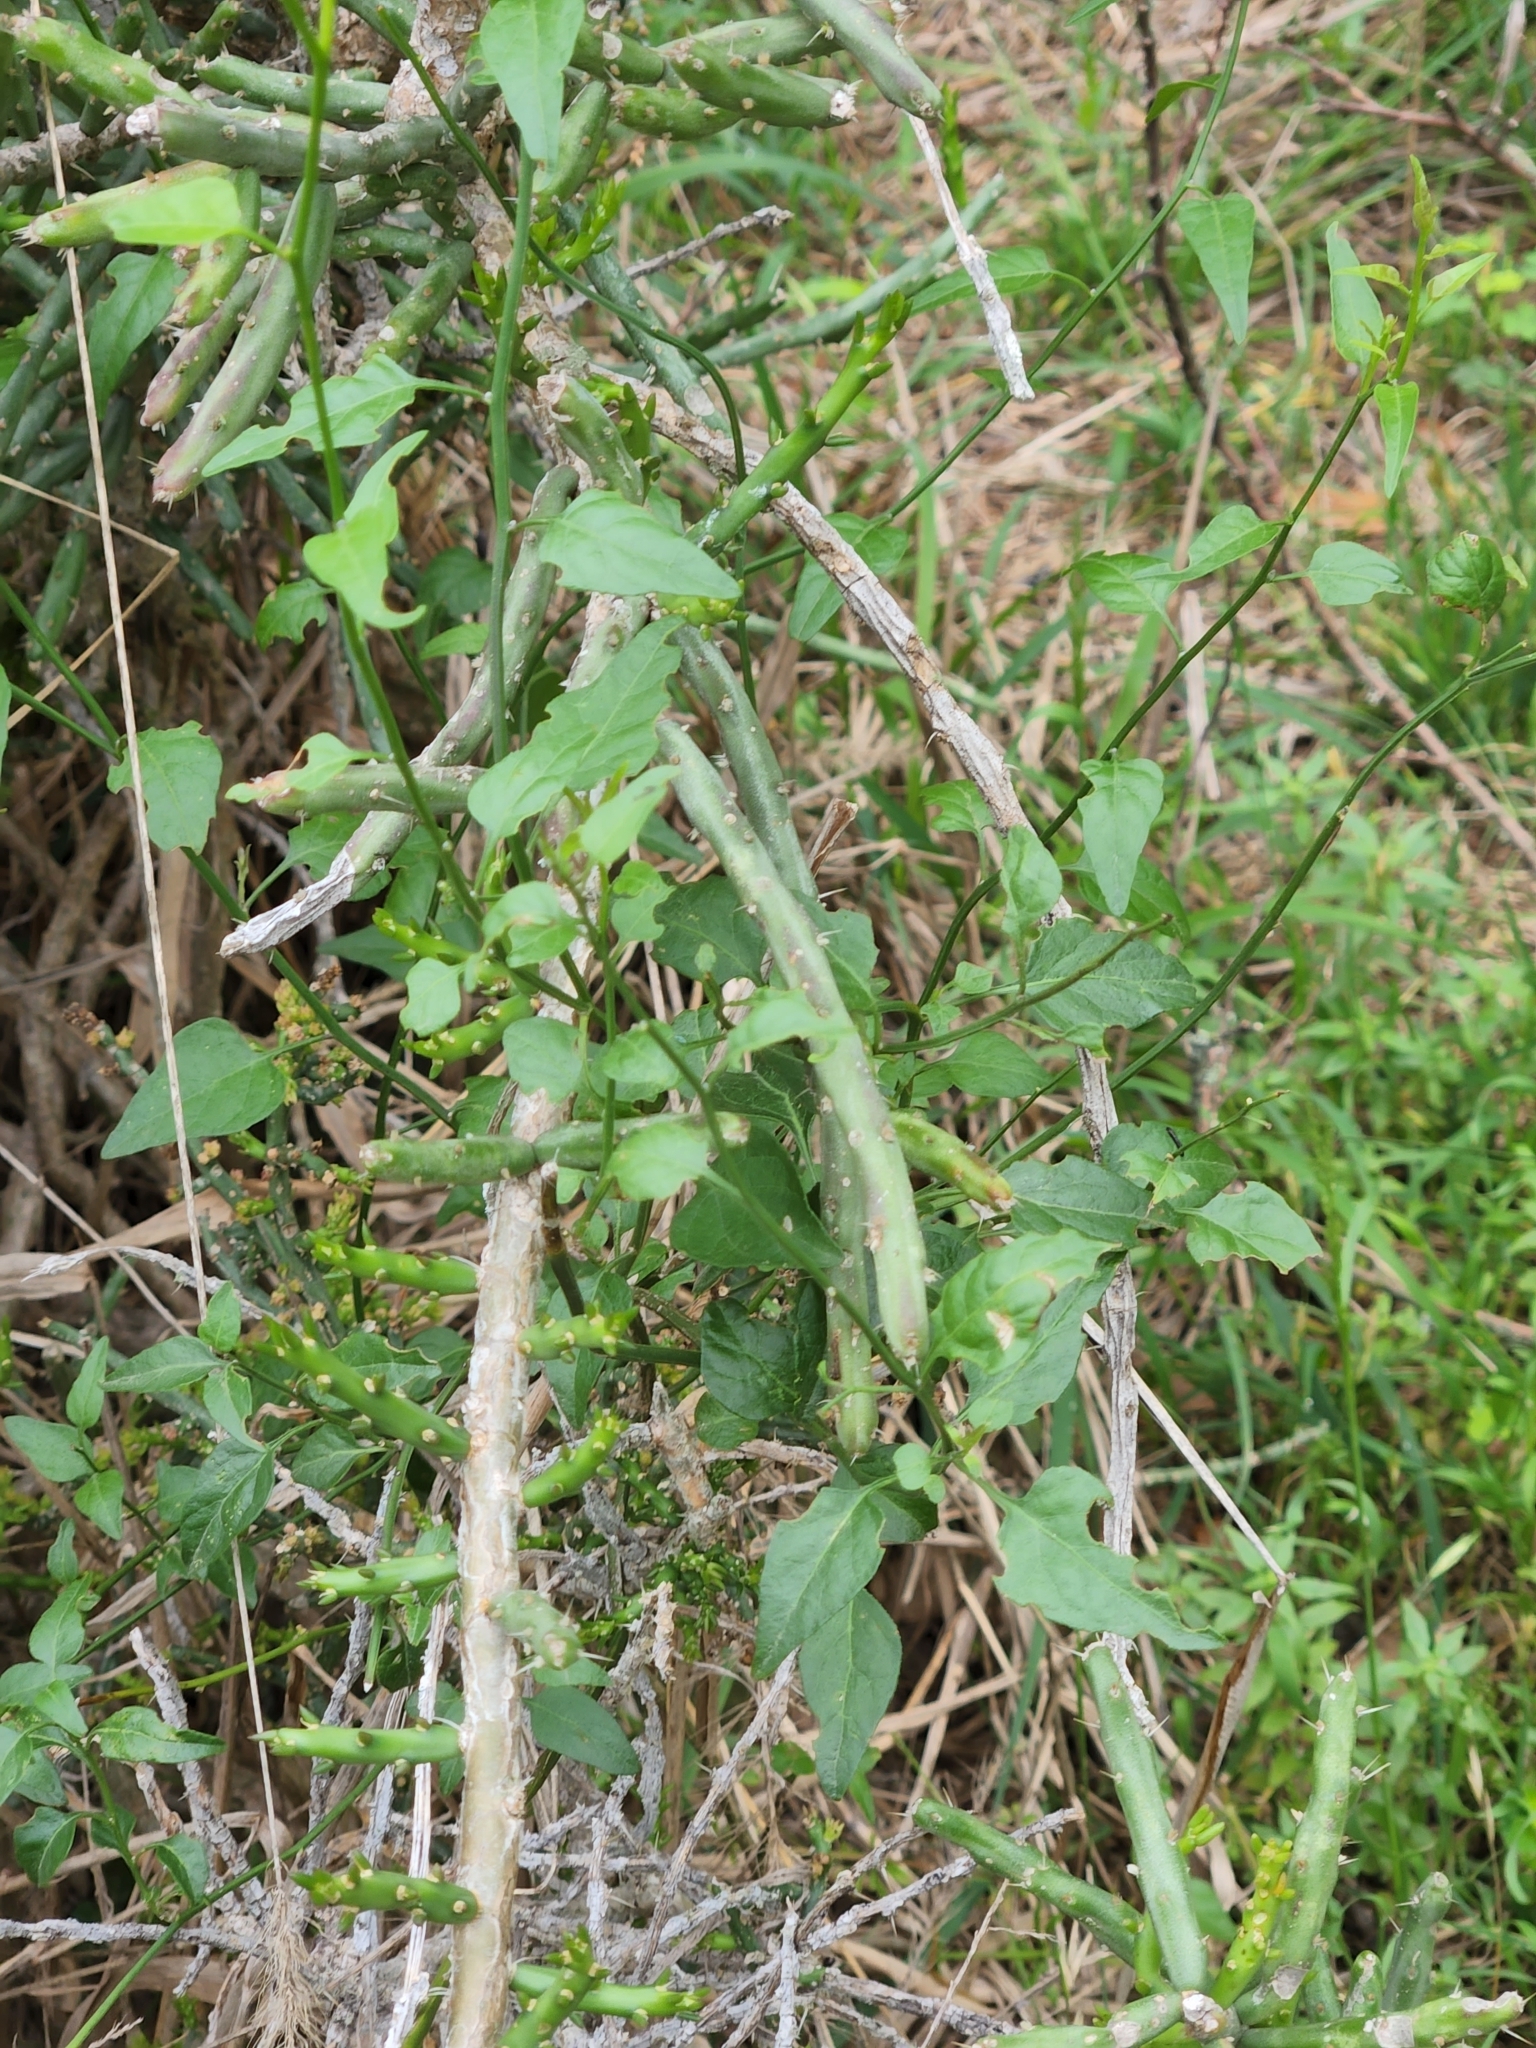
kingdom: Plantae
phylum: Tracheophyta
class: Magnoliopsida
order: Solanales
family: Solanaceae
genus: Solanum
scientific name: Solanum triquetrum
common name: Texas nightshade
